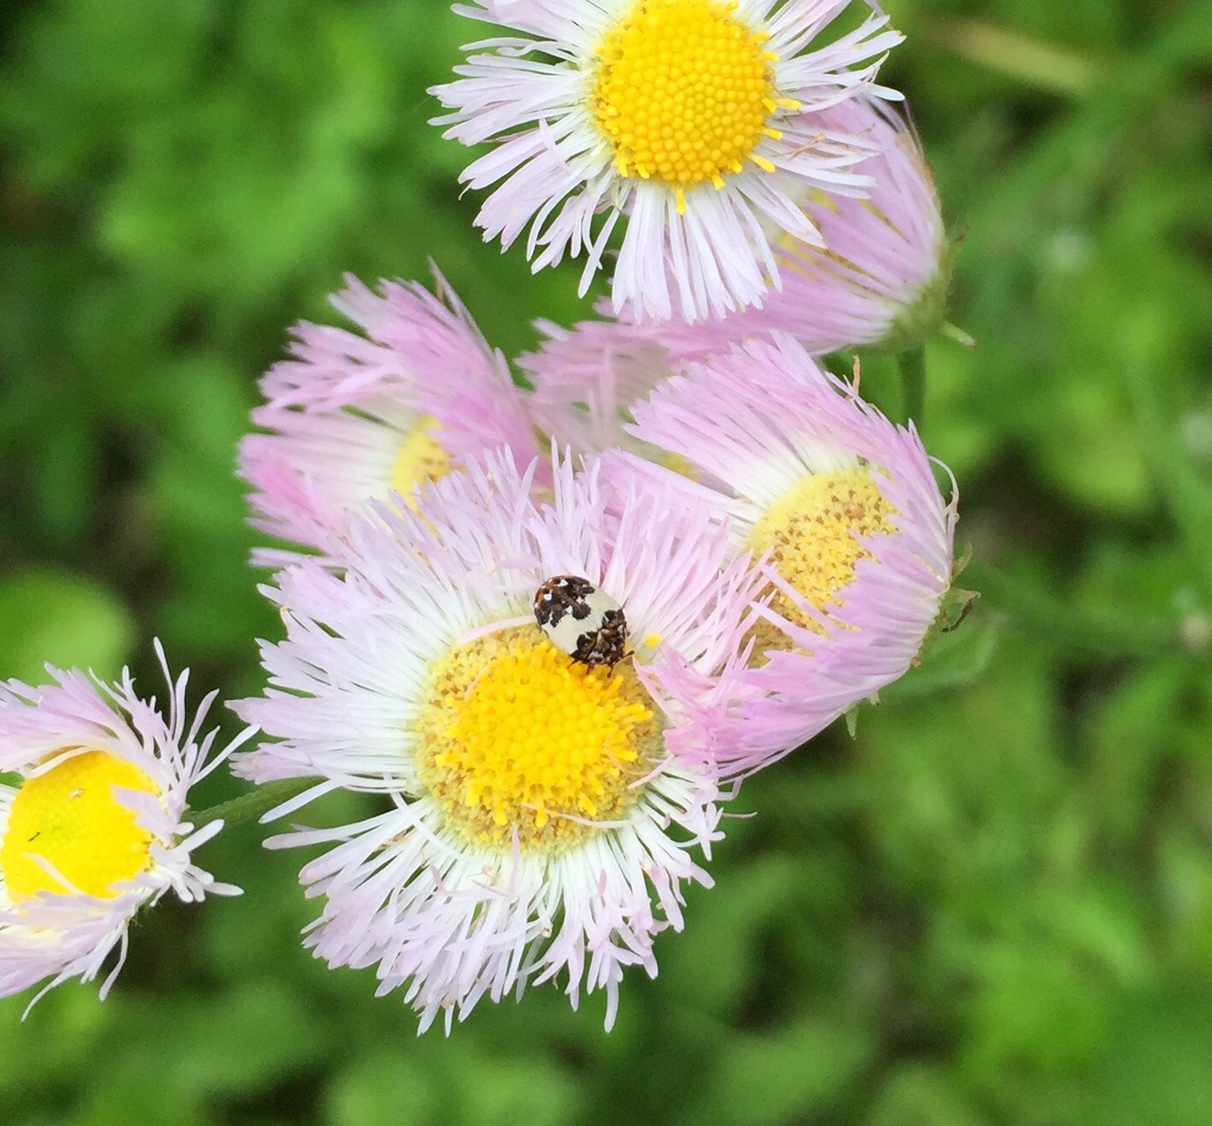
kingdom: Animalia
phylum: Arthropoda
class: Insecta
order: Coleoptera
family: Dermestidae
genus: Anthrenus
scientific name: Anthrenus isabellinus
